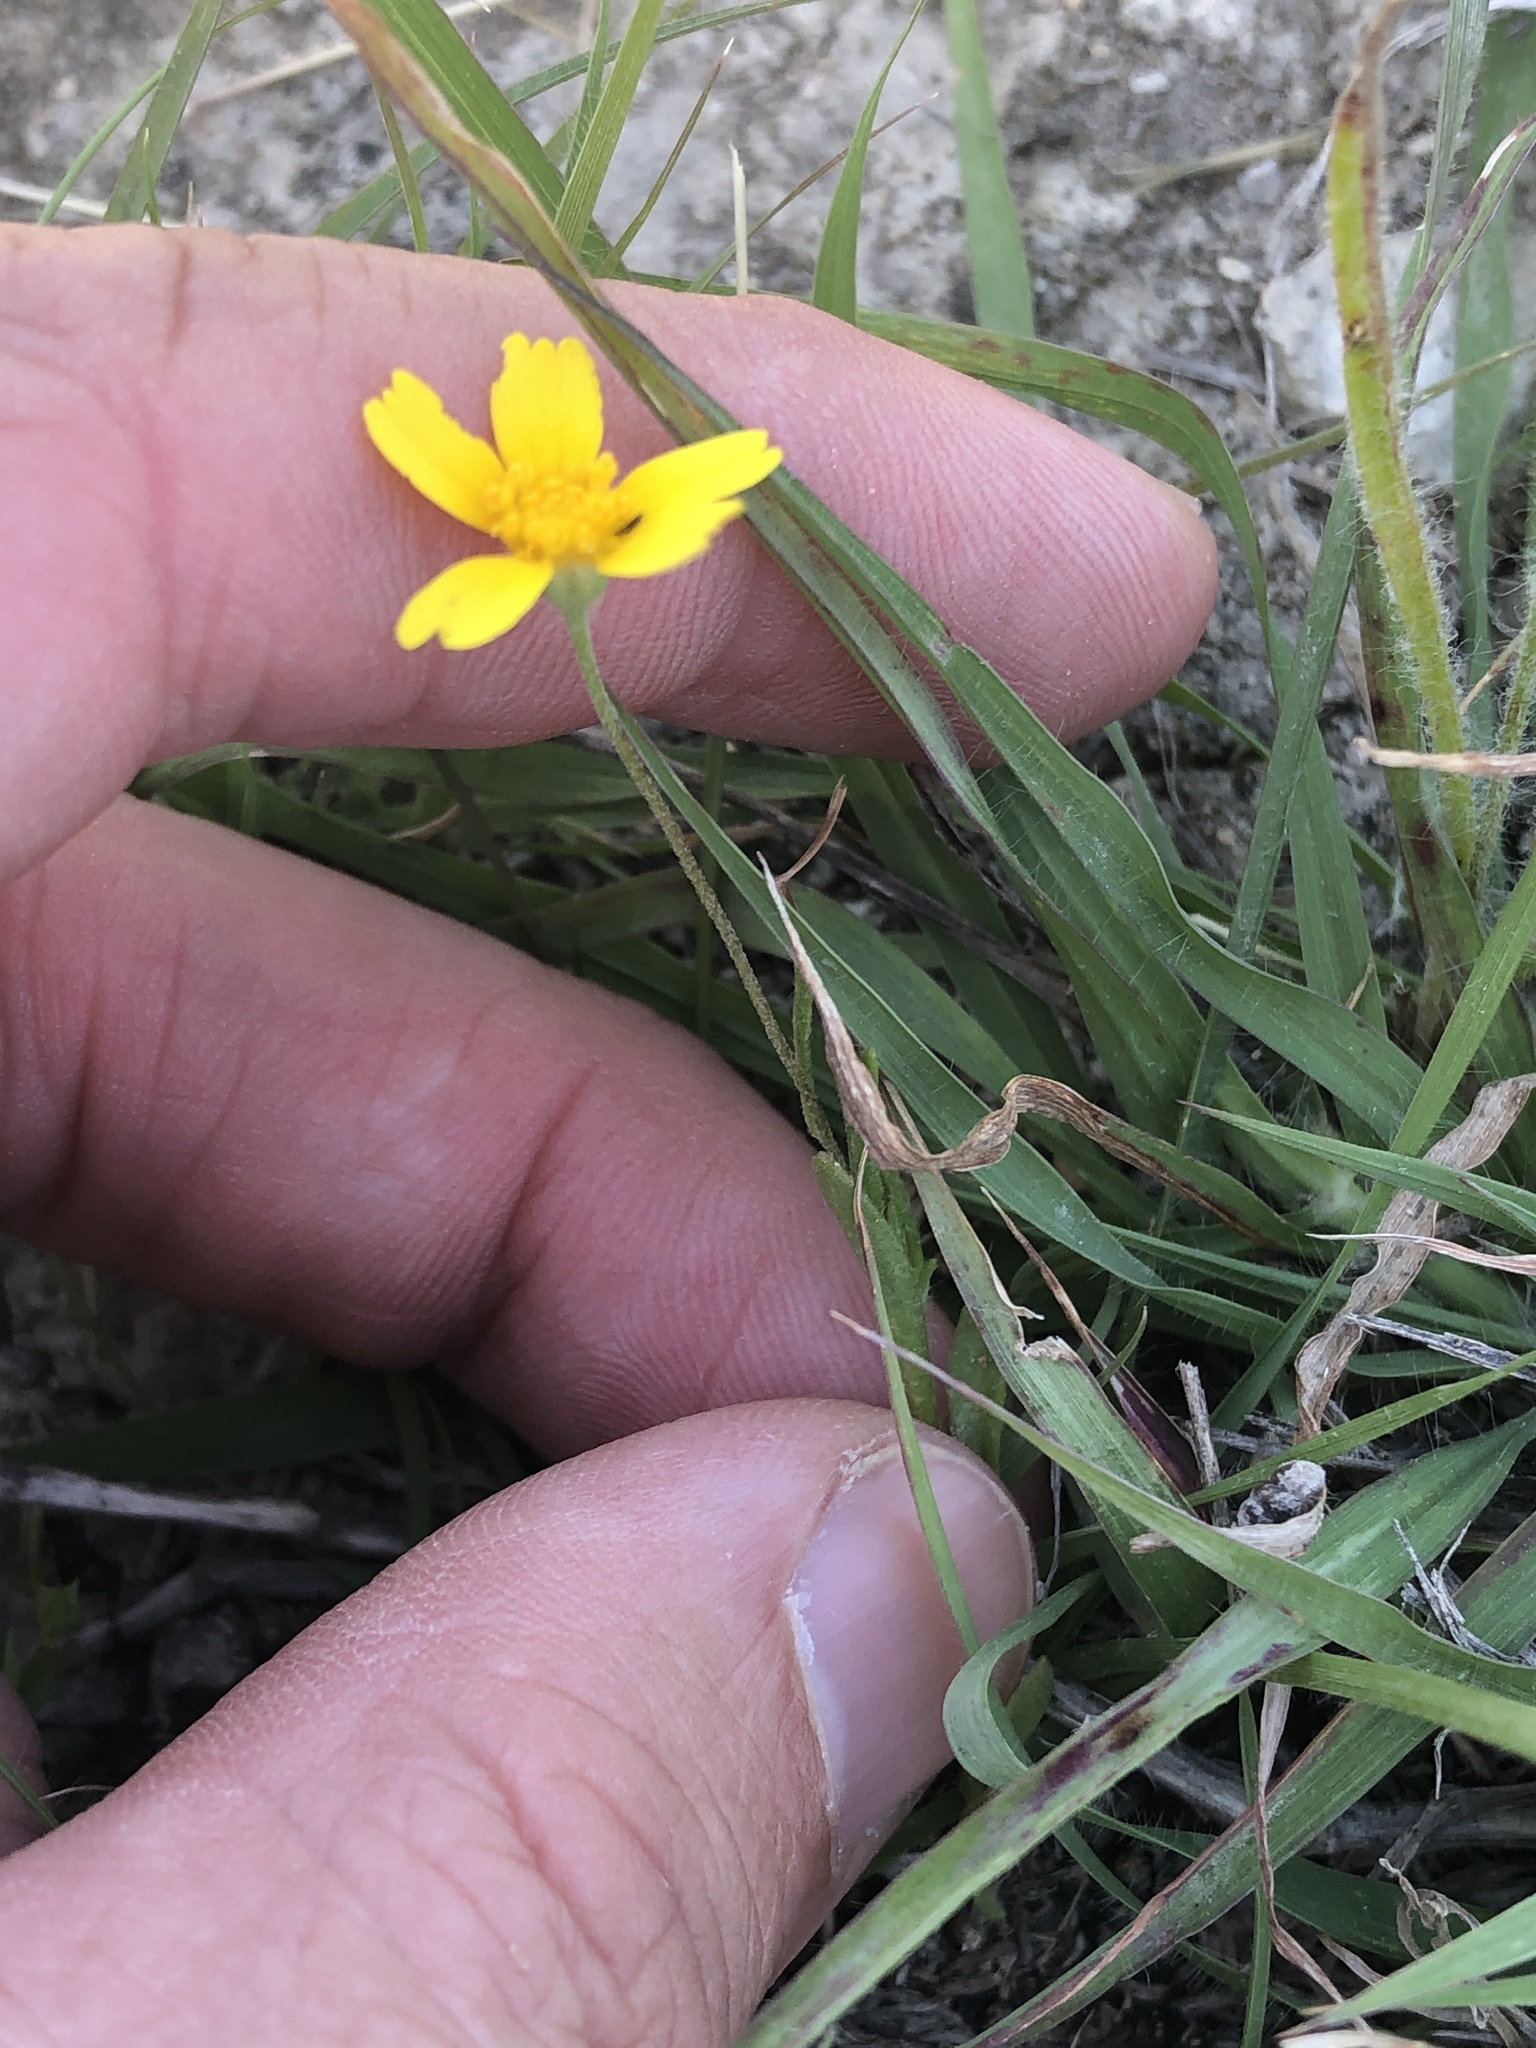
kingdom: Plantae
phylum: Tracheophyta
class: Magnoliopsida
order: Asterales
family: Asteraceae
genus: Tetraneuris
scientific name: Tetraneuris linearifolia
